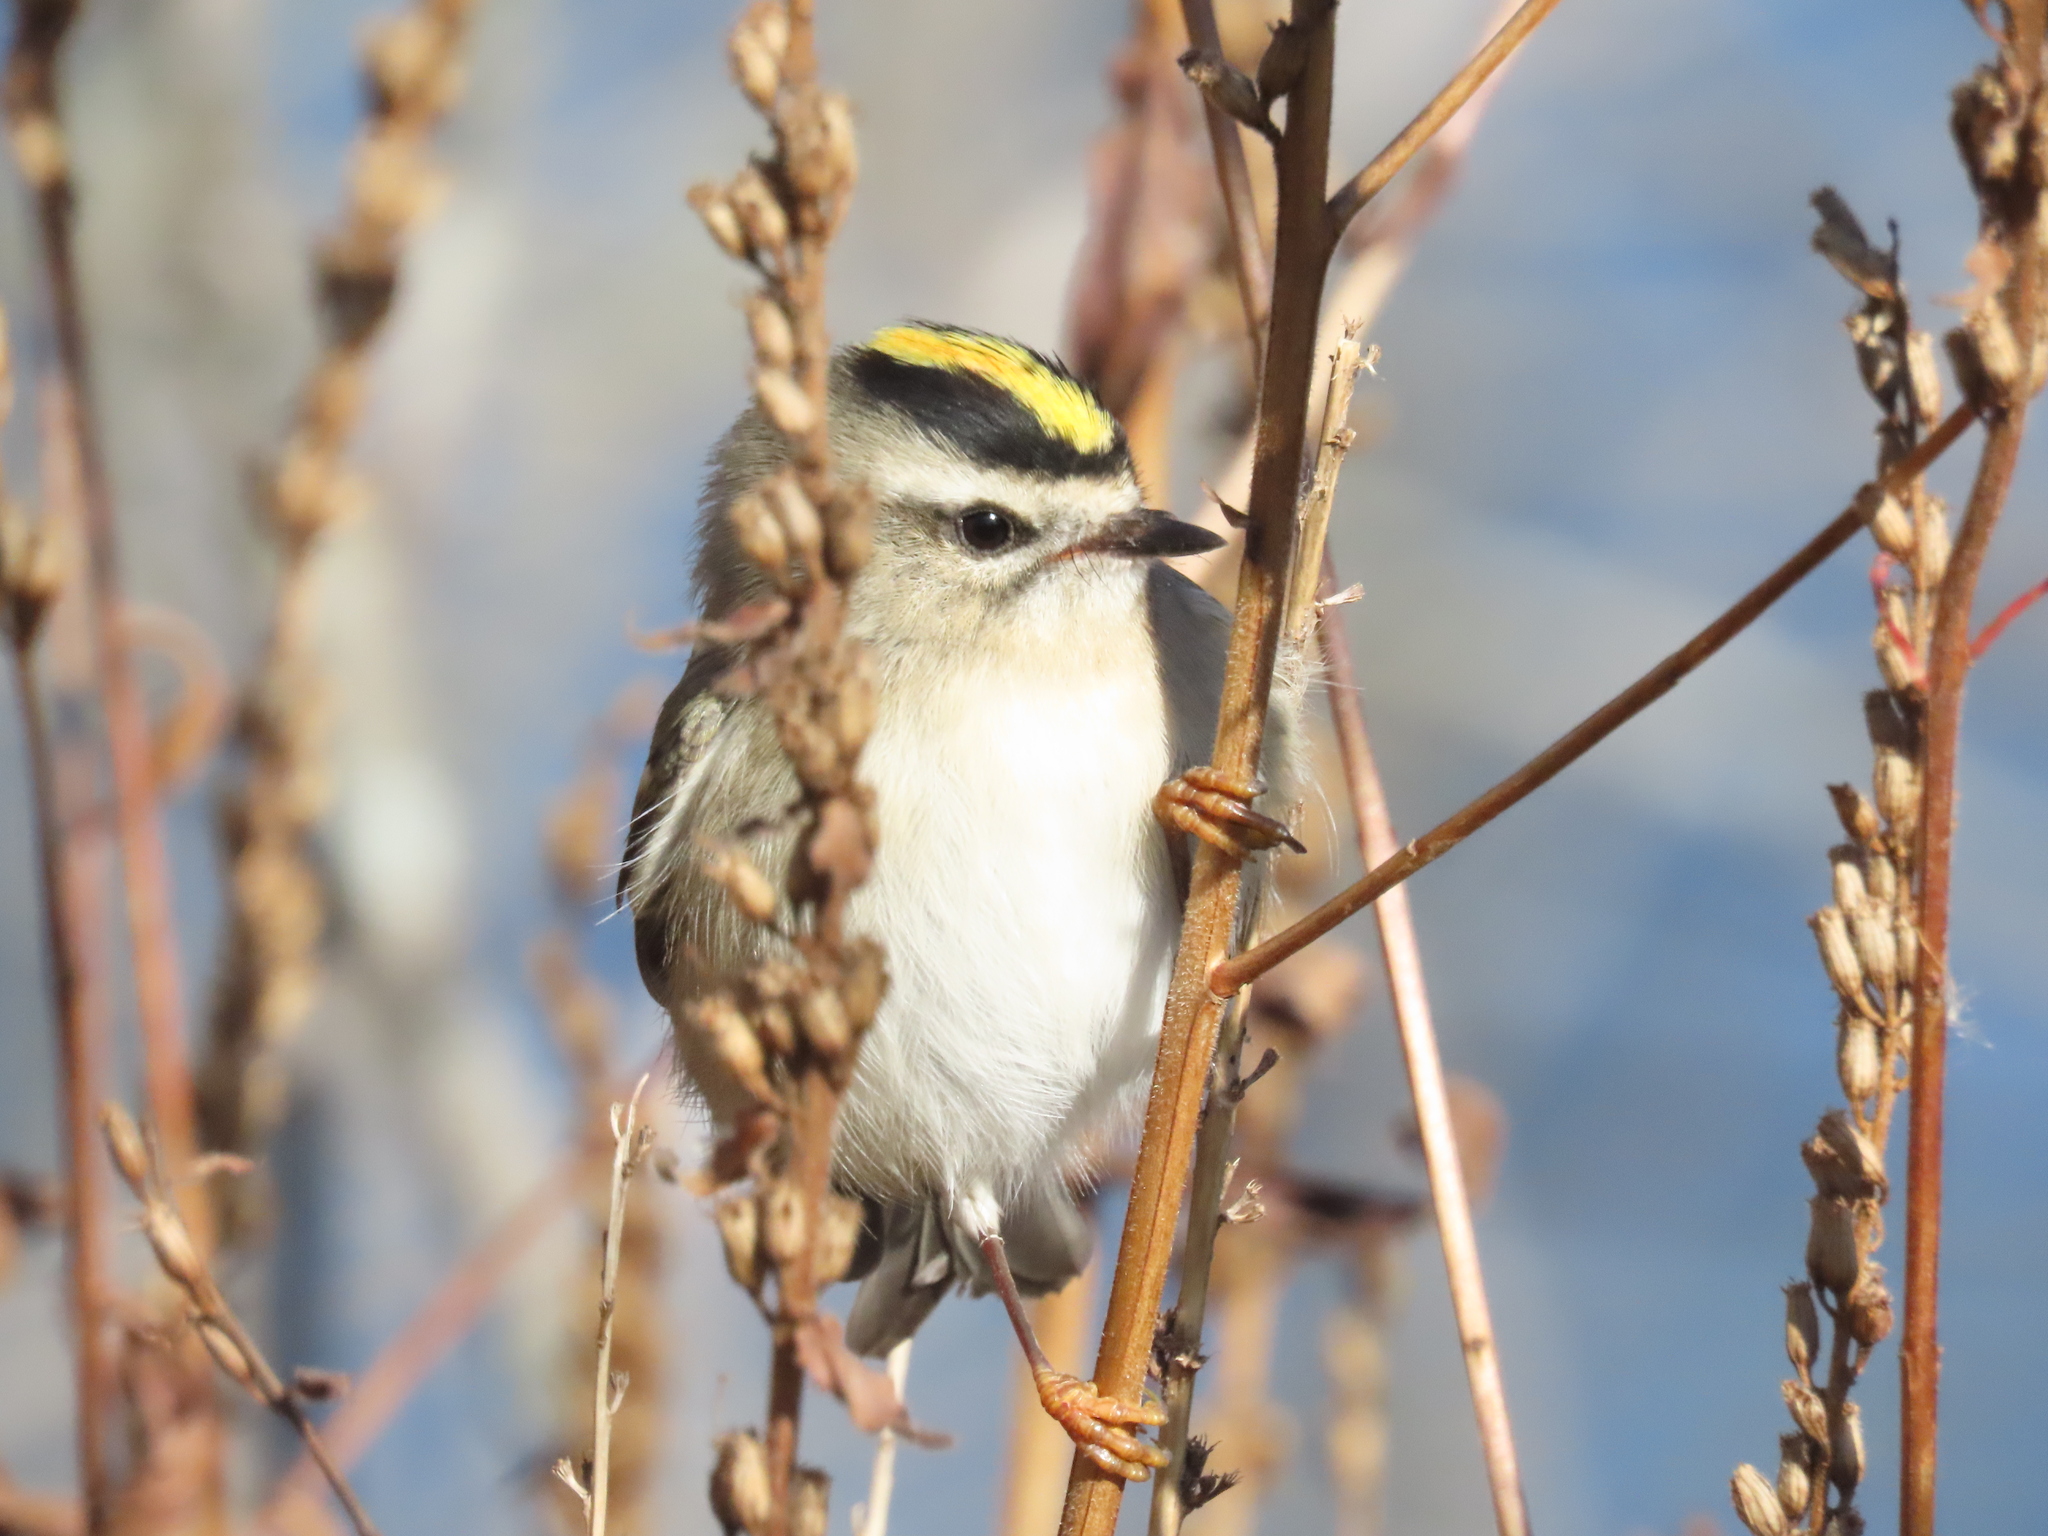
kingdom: Animalia
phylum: Chordata
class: Aves
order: Passeriformes
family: Regulidae
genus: Regulus
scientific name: Regulus satrapa
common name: Golden-crowned kinglet
